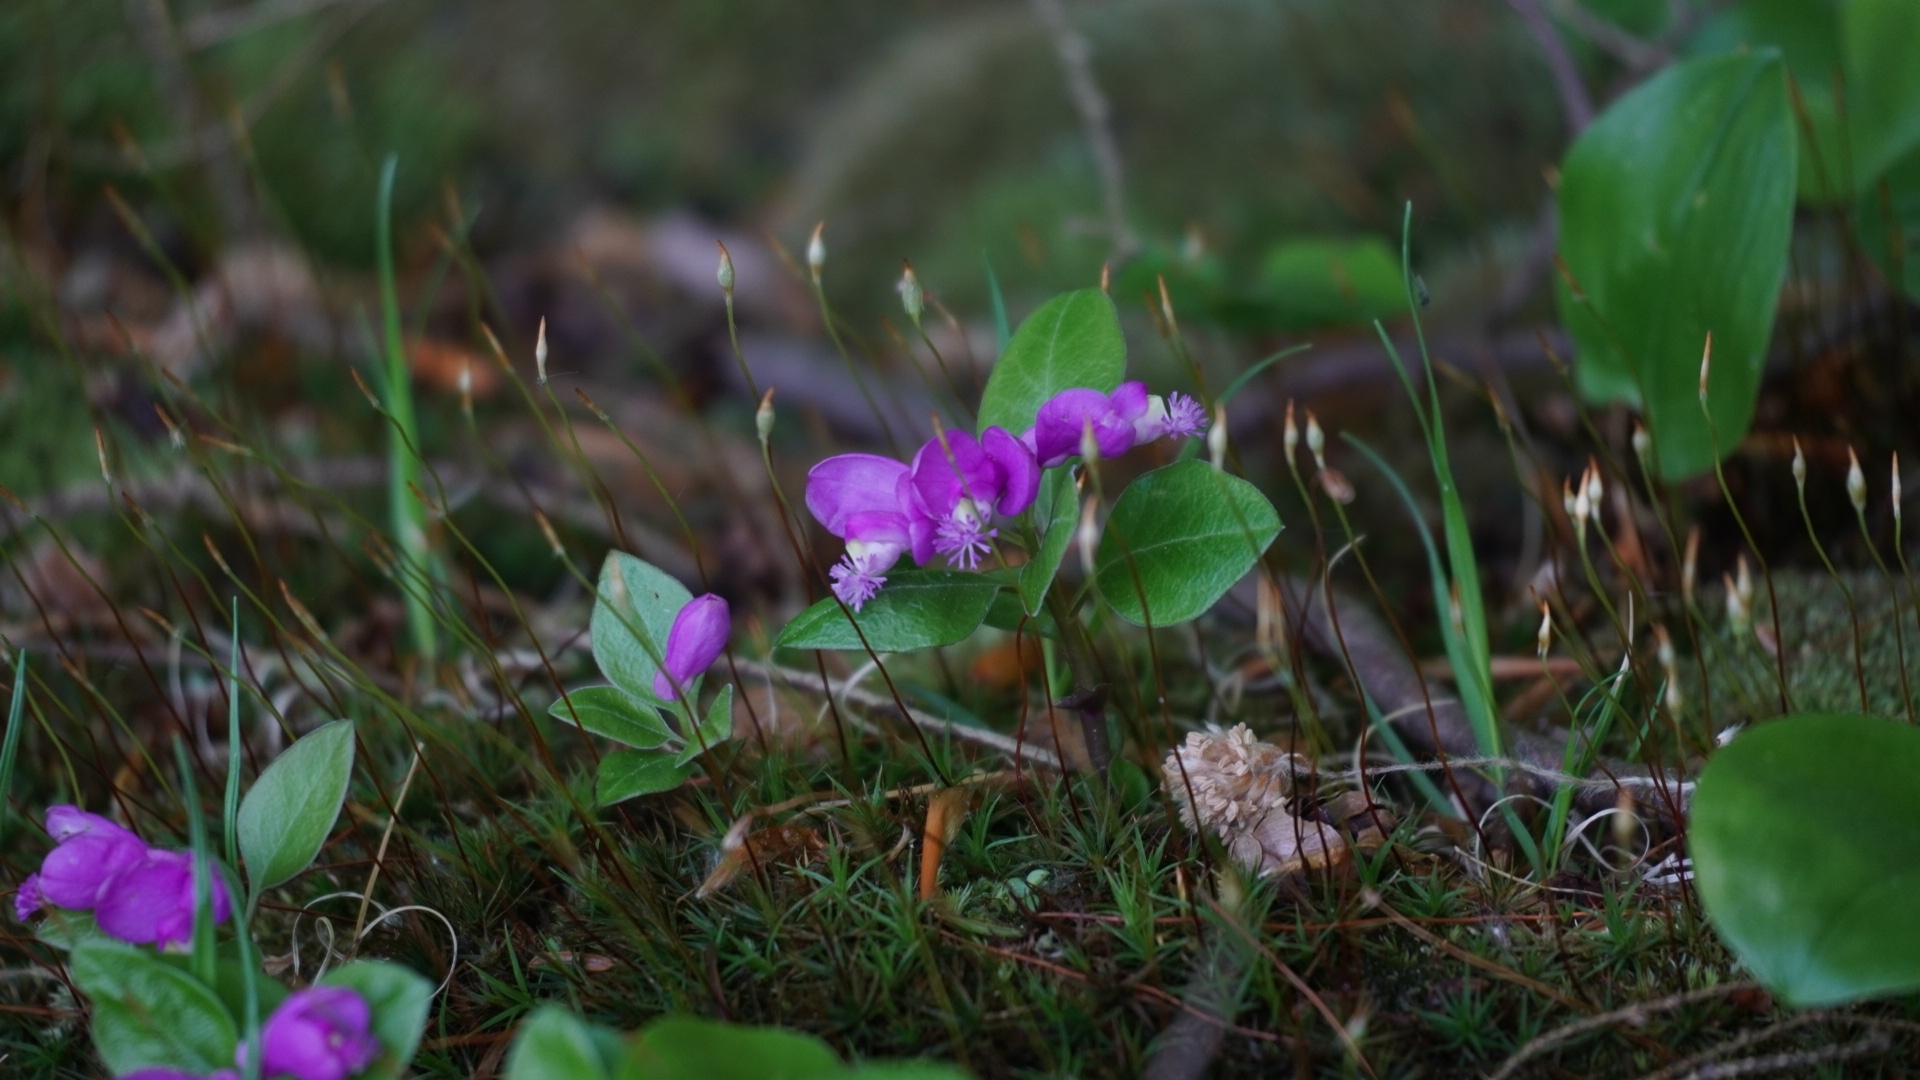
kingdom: Plantae
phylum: Tracheophyta
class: Magnoliopsida
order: Fabales
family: Polygalaceae
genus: Polygaloides
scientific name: Polygaloides paucifolia
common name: Bird-on-the-wing
